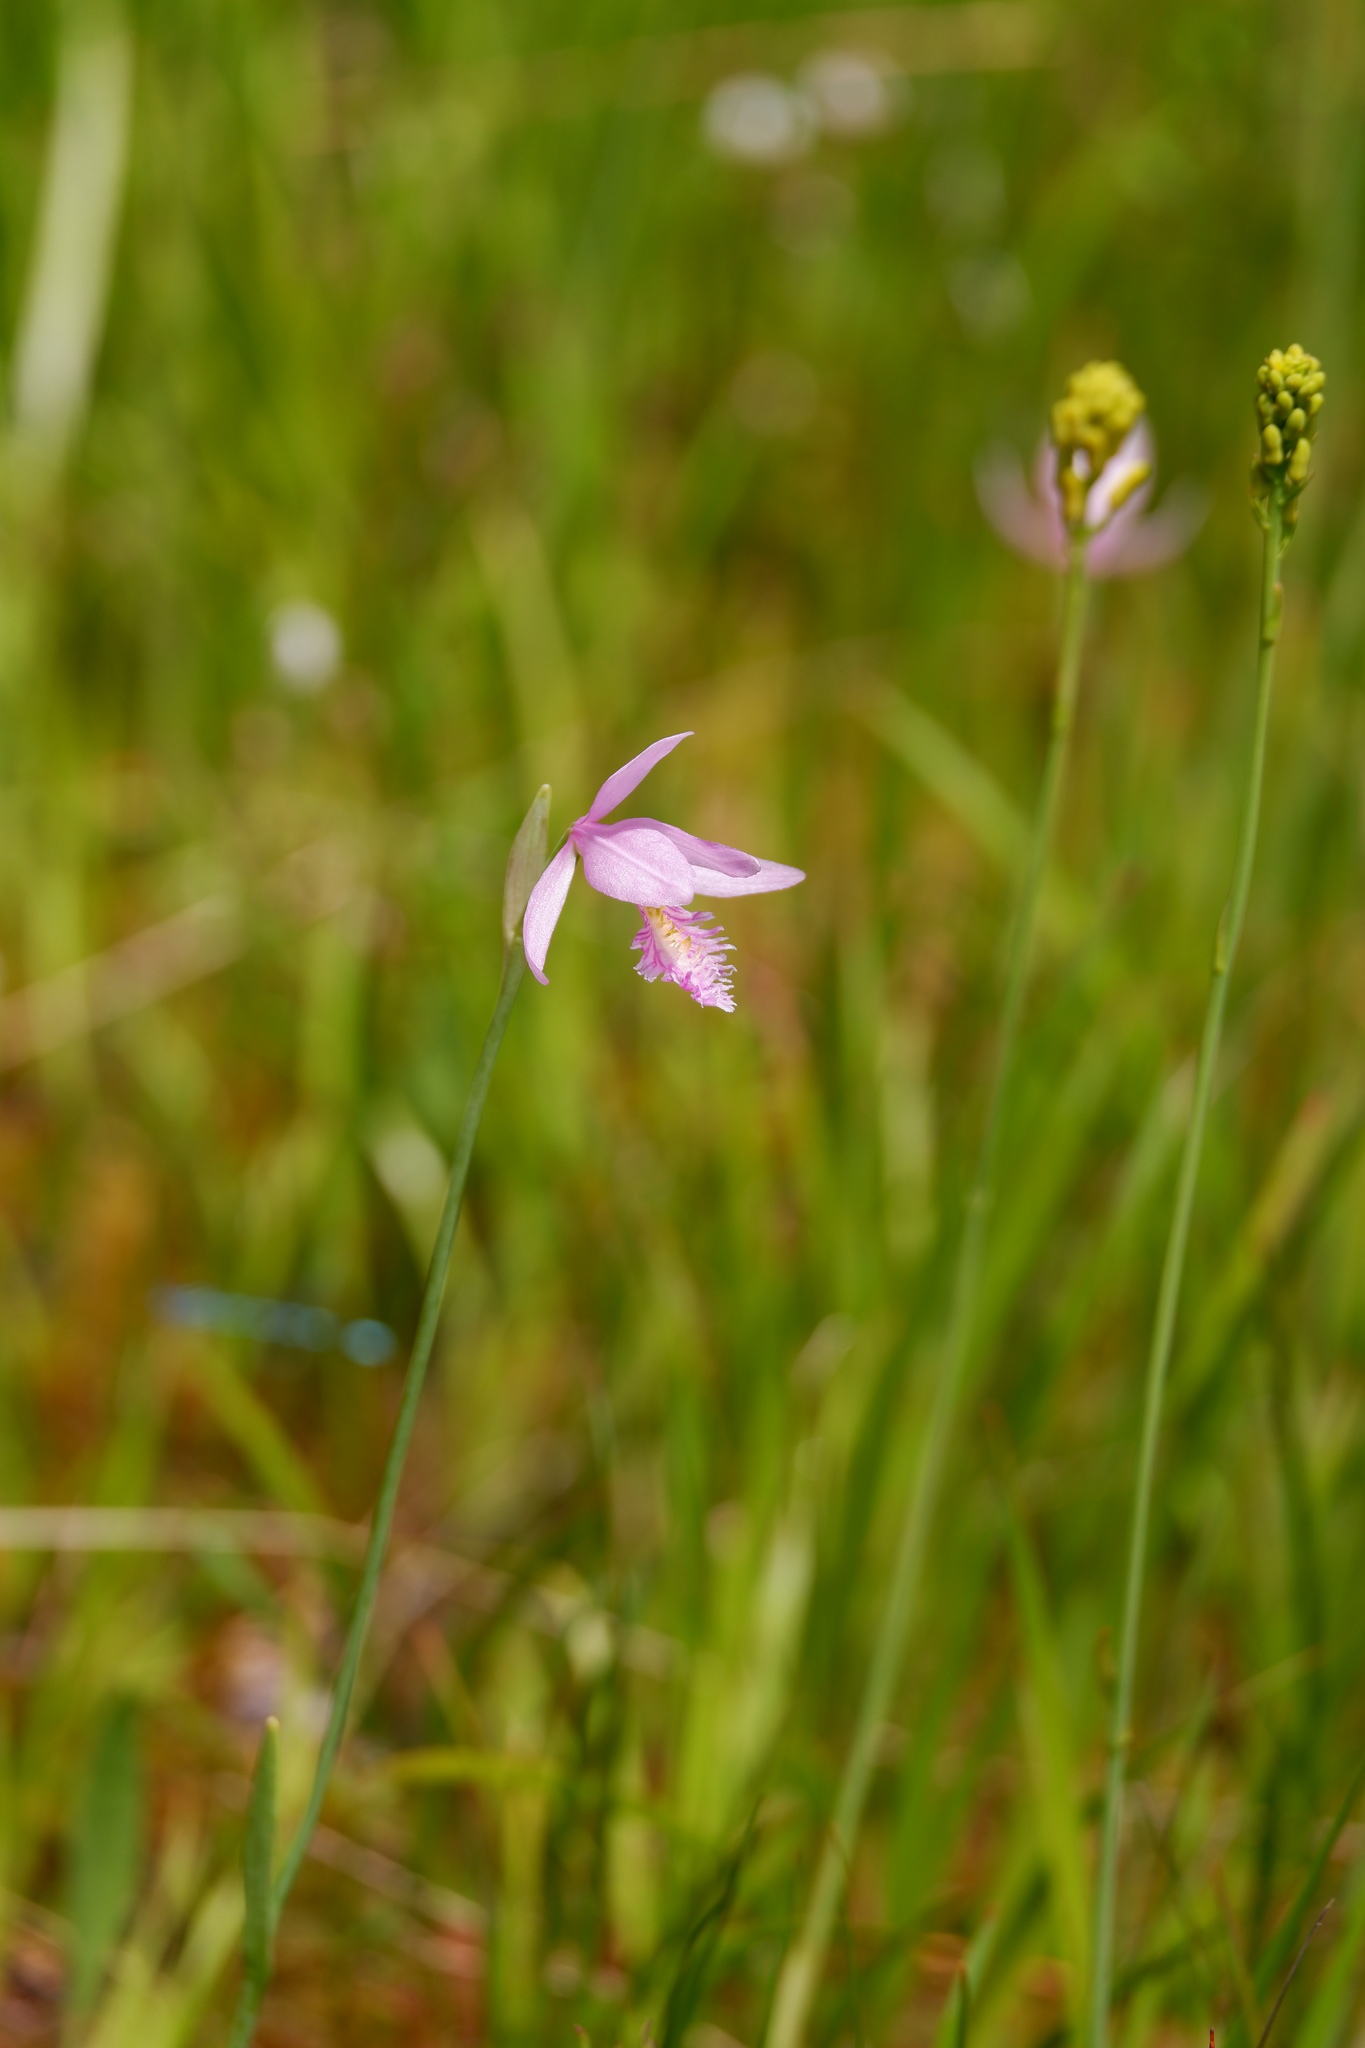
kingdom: Plantae
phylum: Tracheophyta
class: Liliopsida
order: Asparagales
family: Orchidaceae
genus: Pogonia
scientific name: Pogonia ophioglossoides
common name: Rose pogonia
